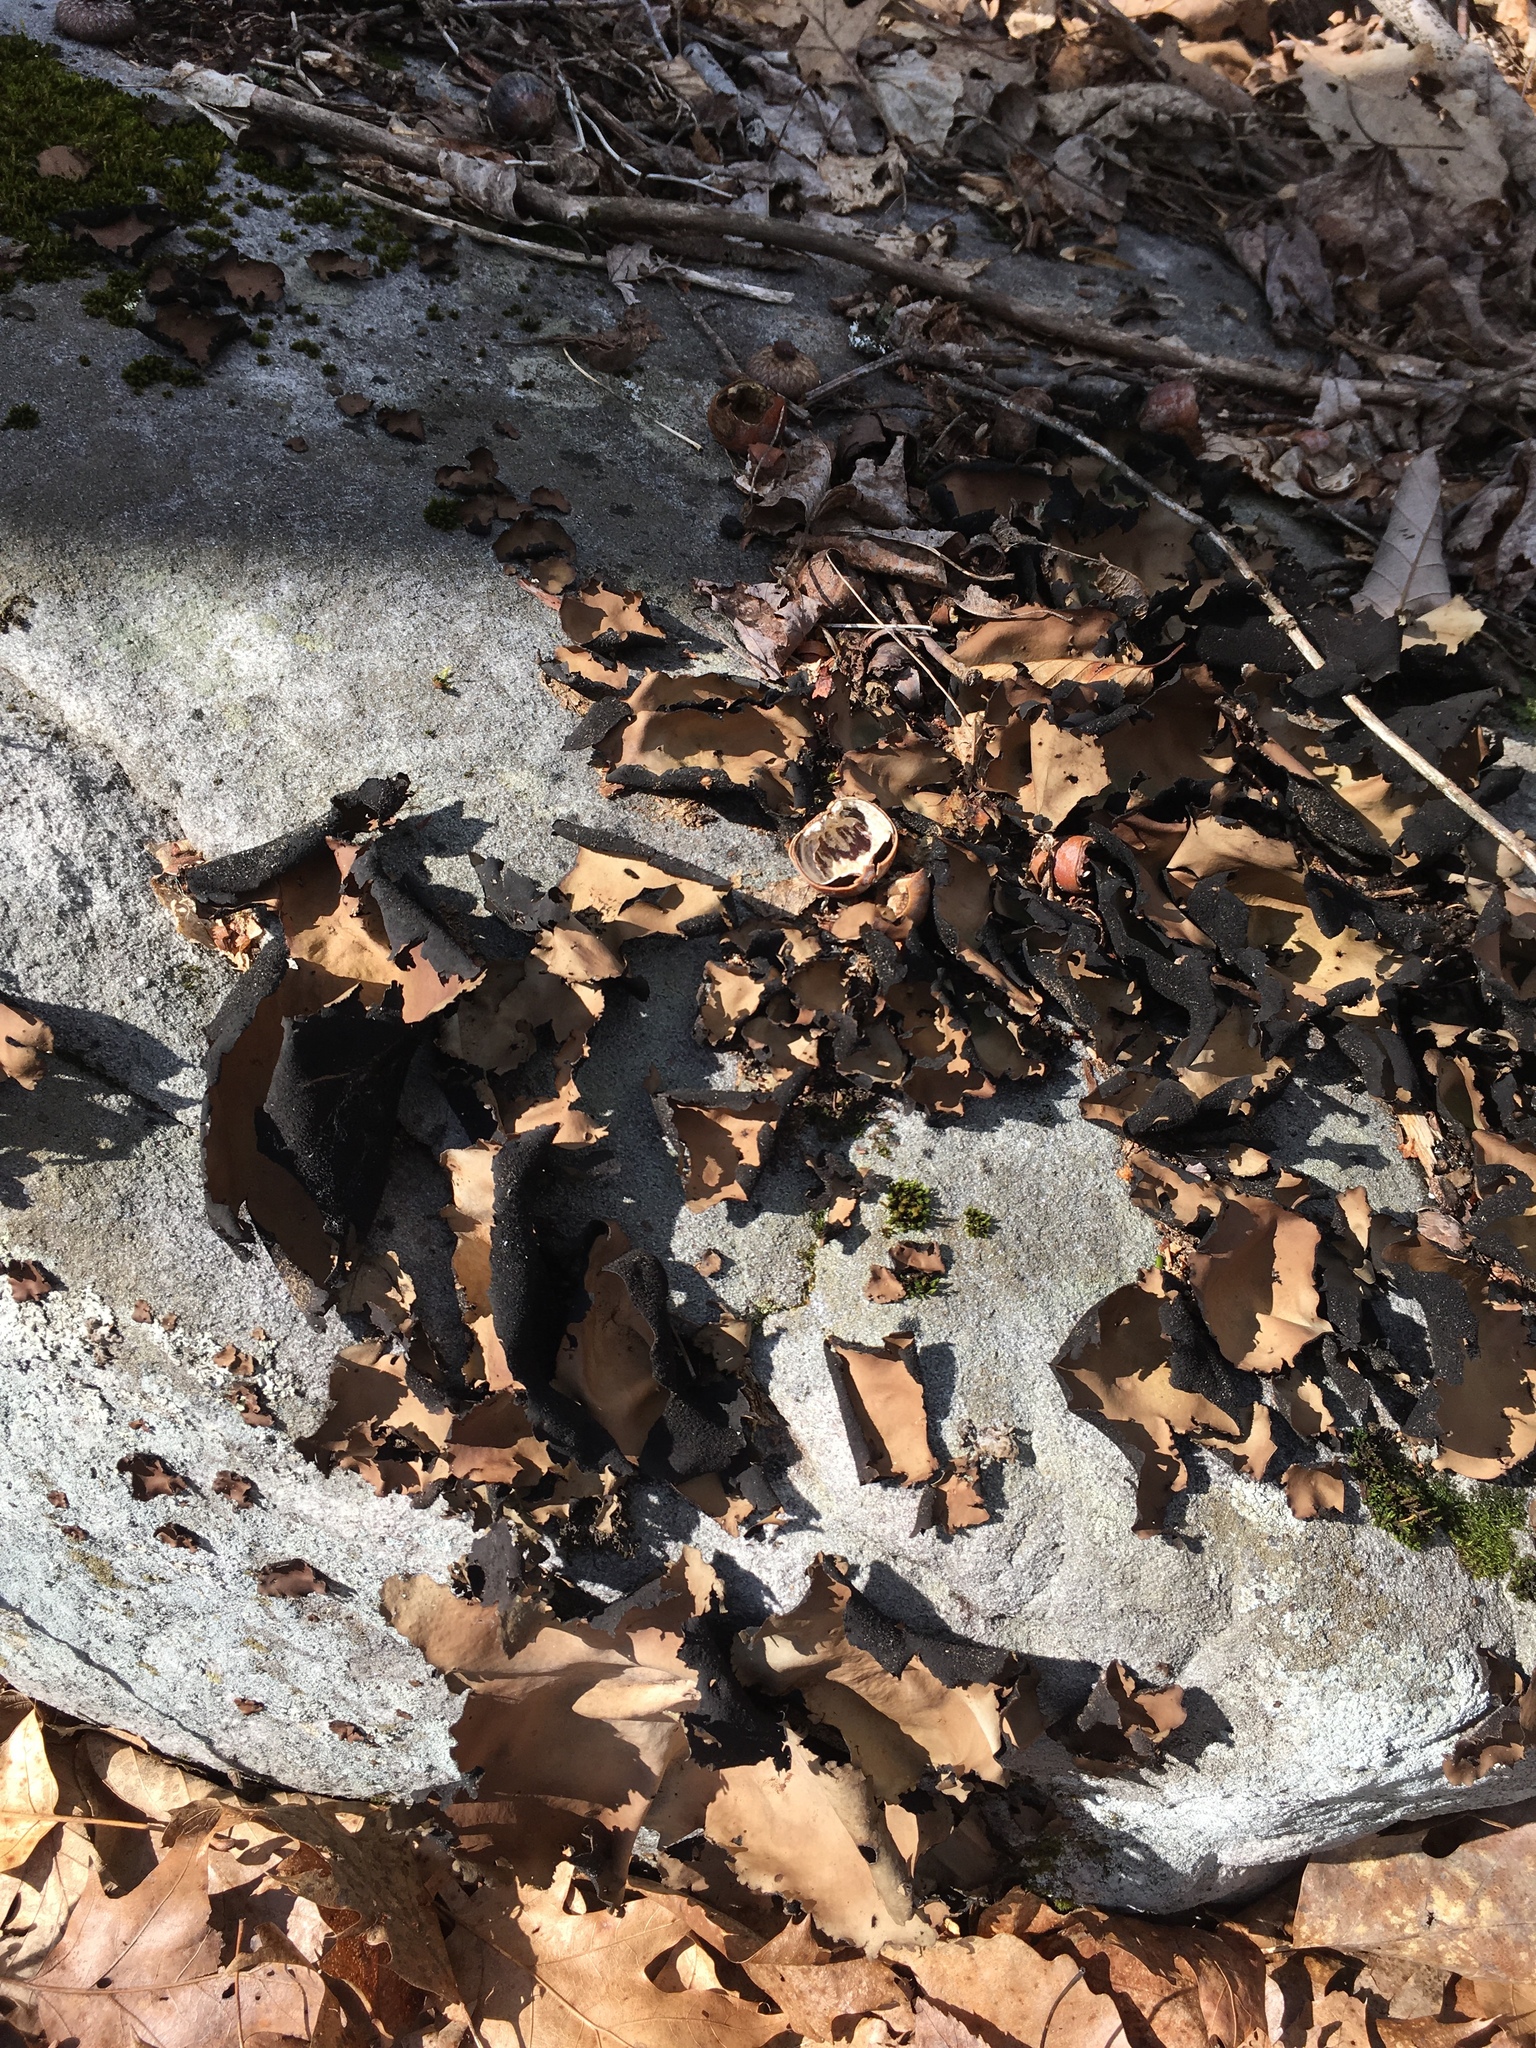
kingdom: Fungi
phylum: Ascomycota
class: Lecanoromycetes
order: Umbilicariales
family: Umbilicariaceae
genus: Umbilicaria
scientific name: Umbilicaria mammulata
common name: Smooth rock tripe
